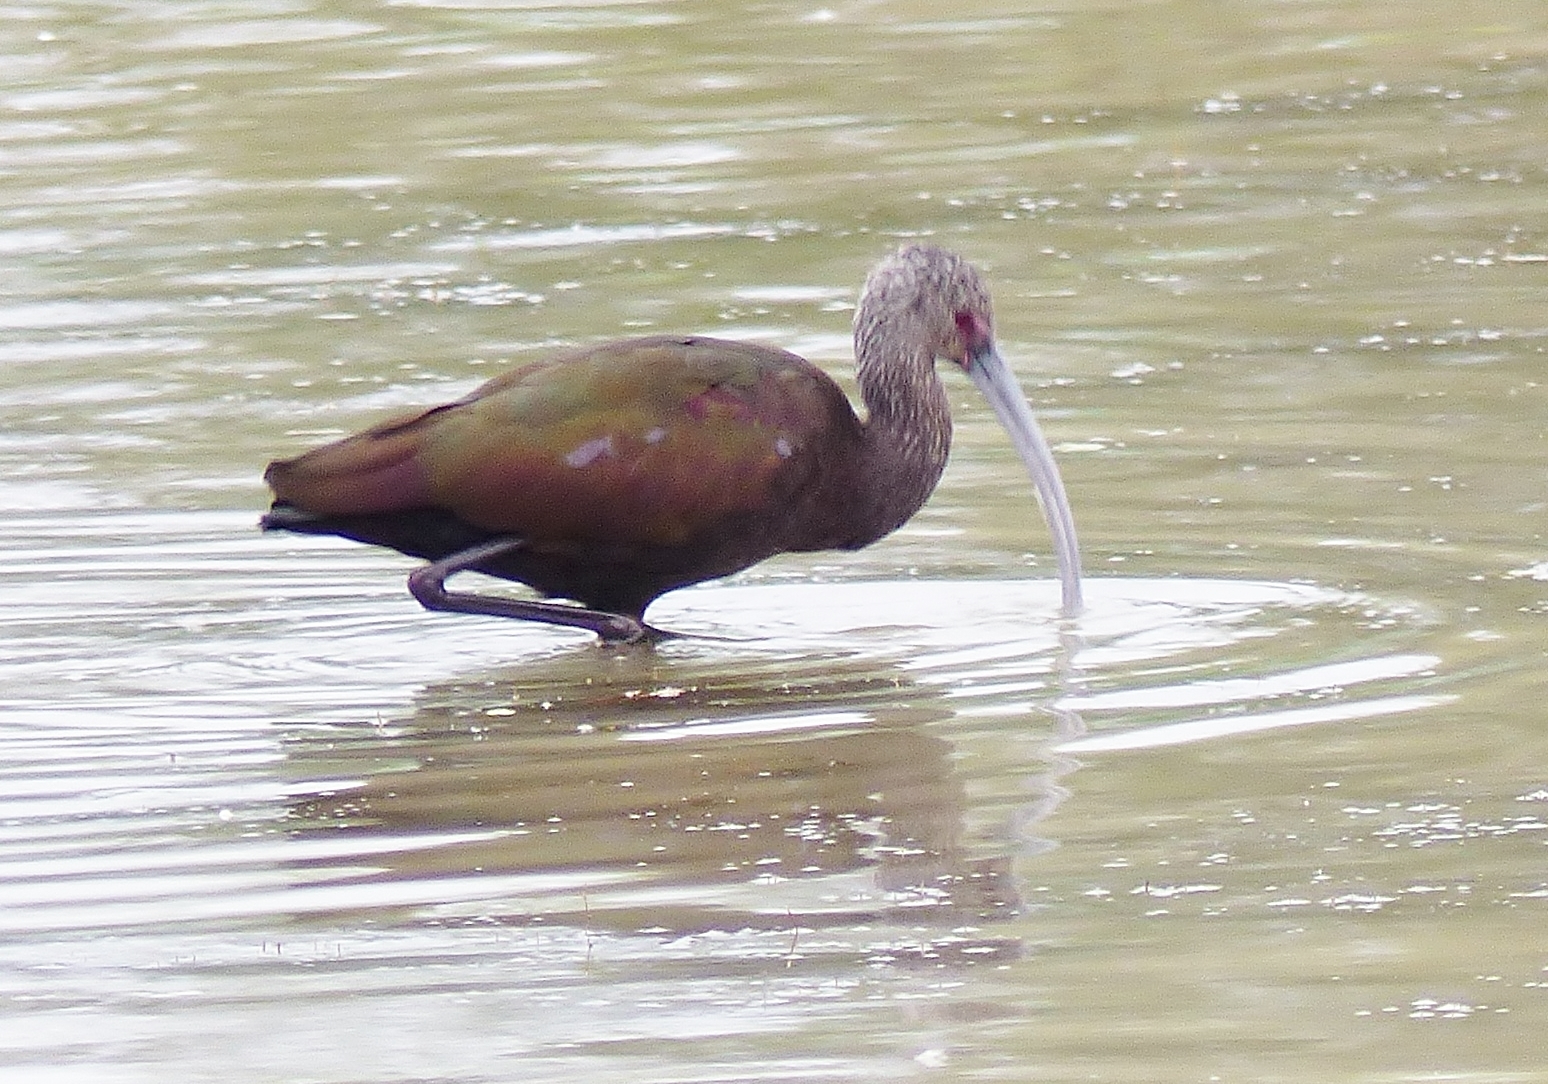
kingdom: Animalia
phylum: Chordata
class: Aves
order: Pelecaniformes
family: Threskiornithidae
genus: Plegadis
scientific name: Plegadis chihi
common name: White-faced ibis
